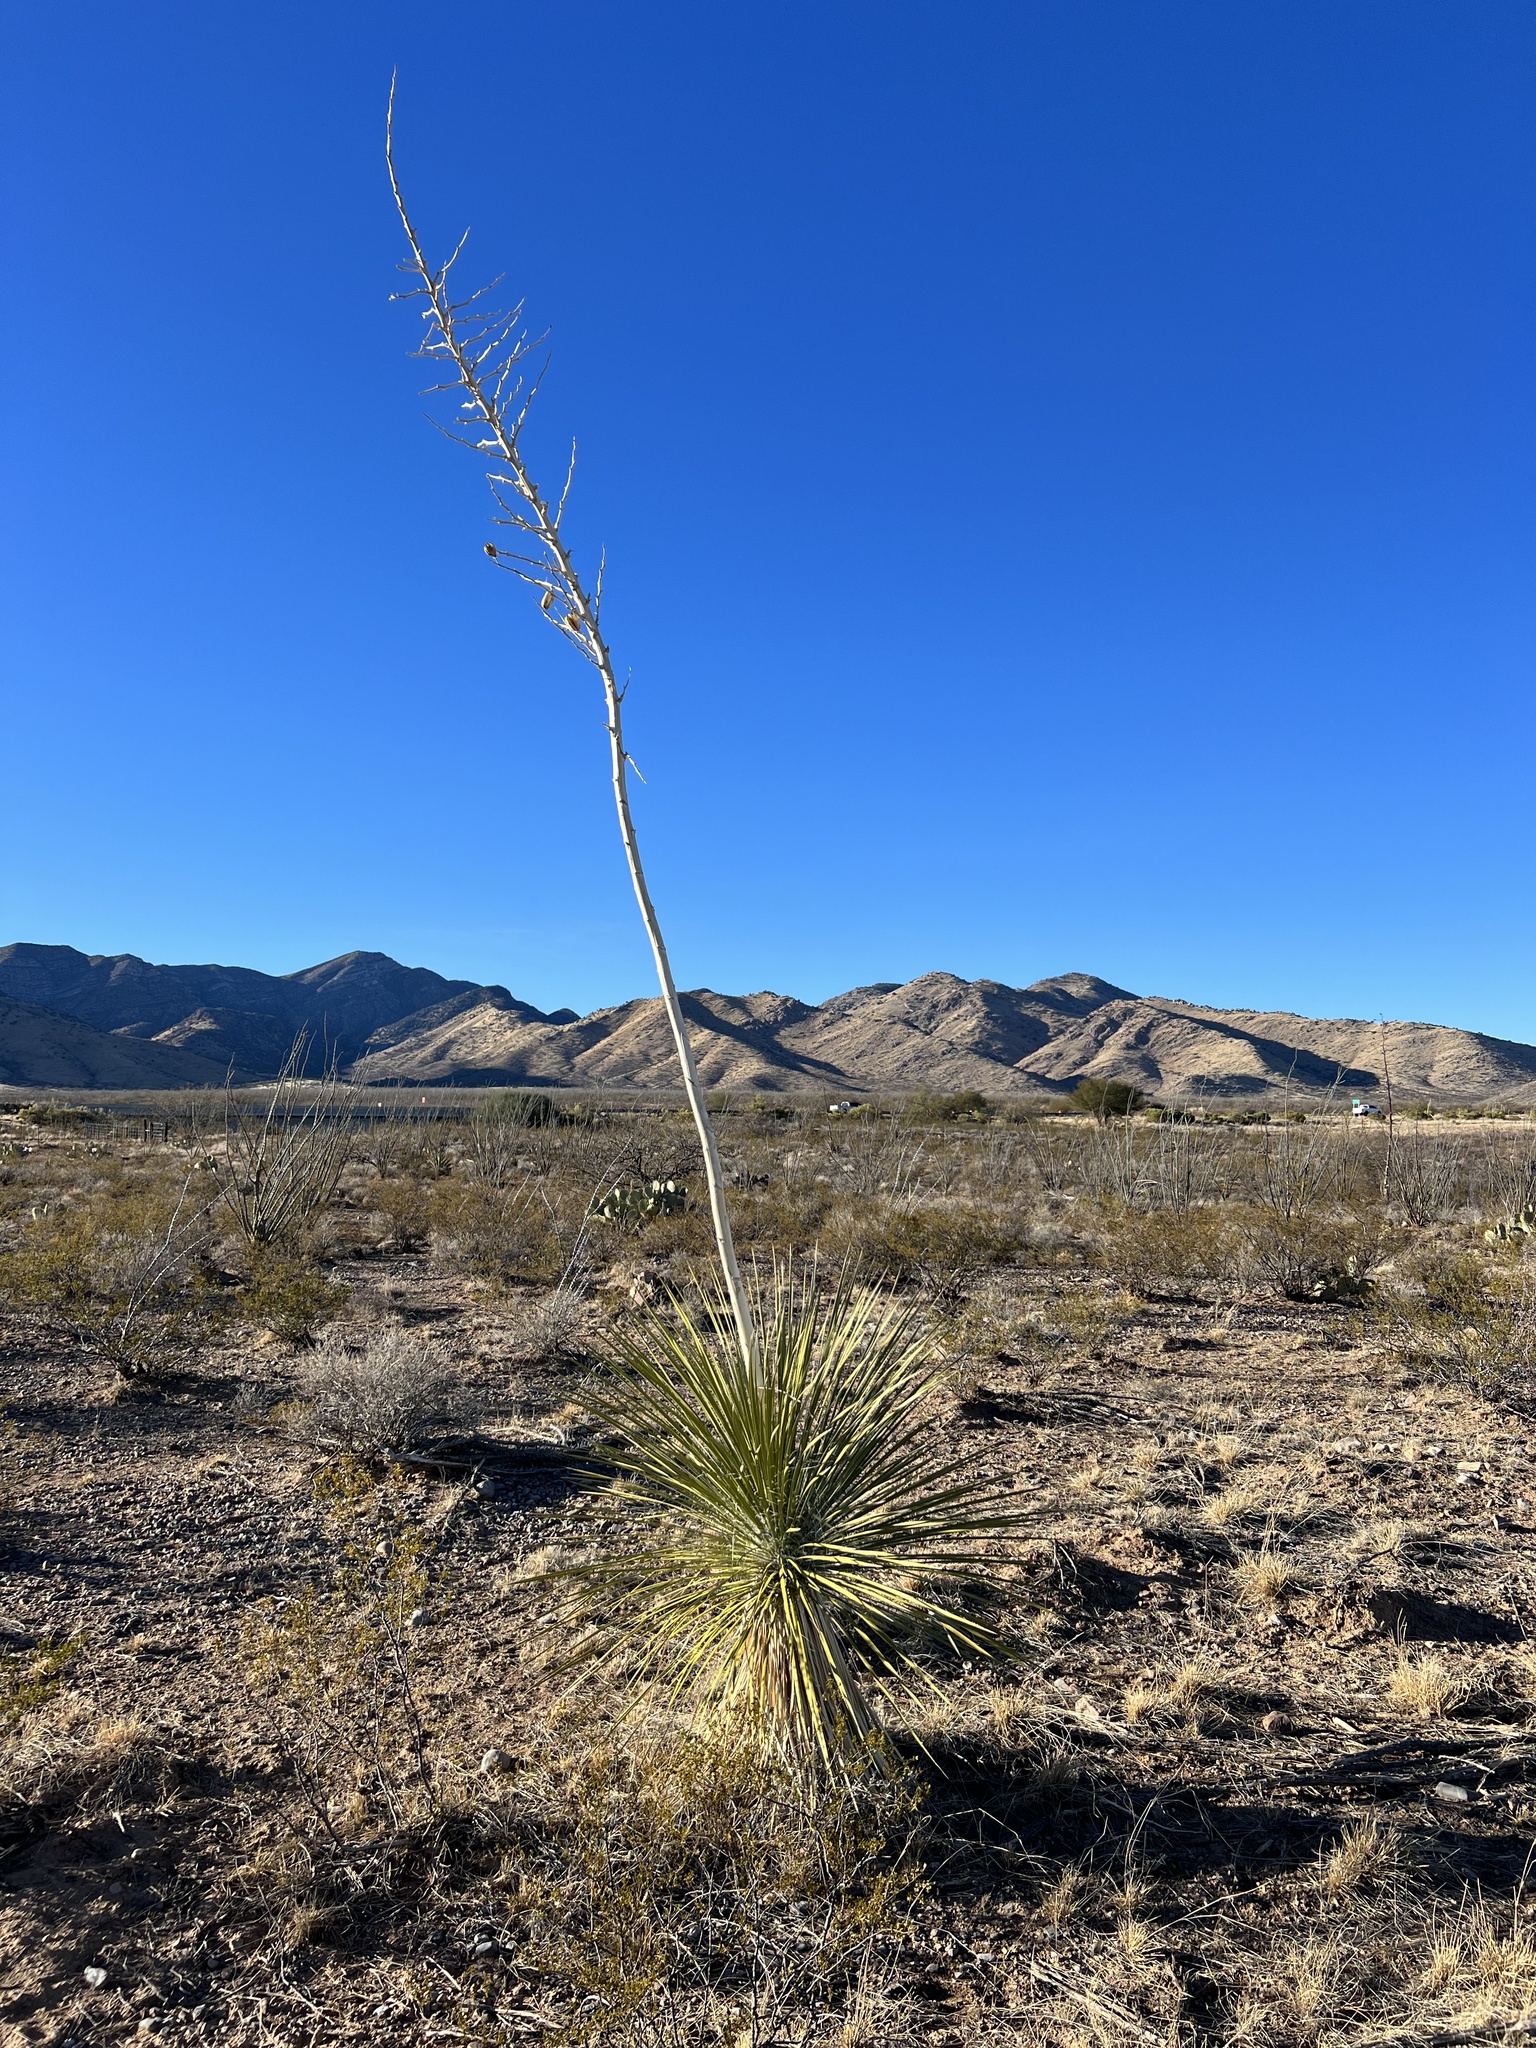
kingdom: Plantae
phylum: Tracheophyta
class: Liliopsida
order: Asparagales
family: Asparagaceae
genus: Yucca
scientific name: Yucca elata
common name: Palmella
